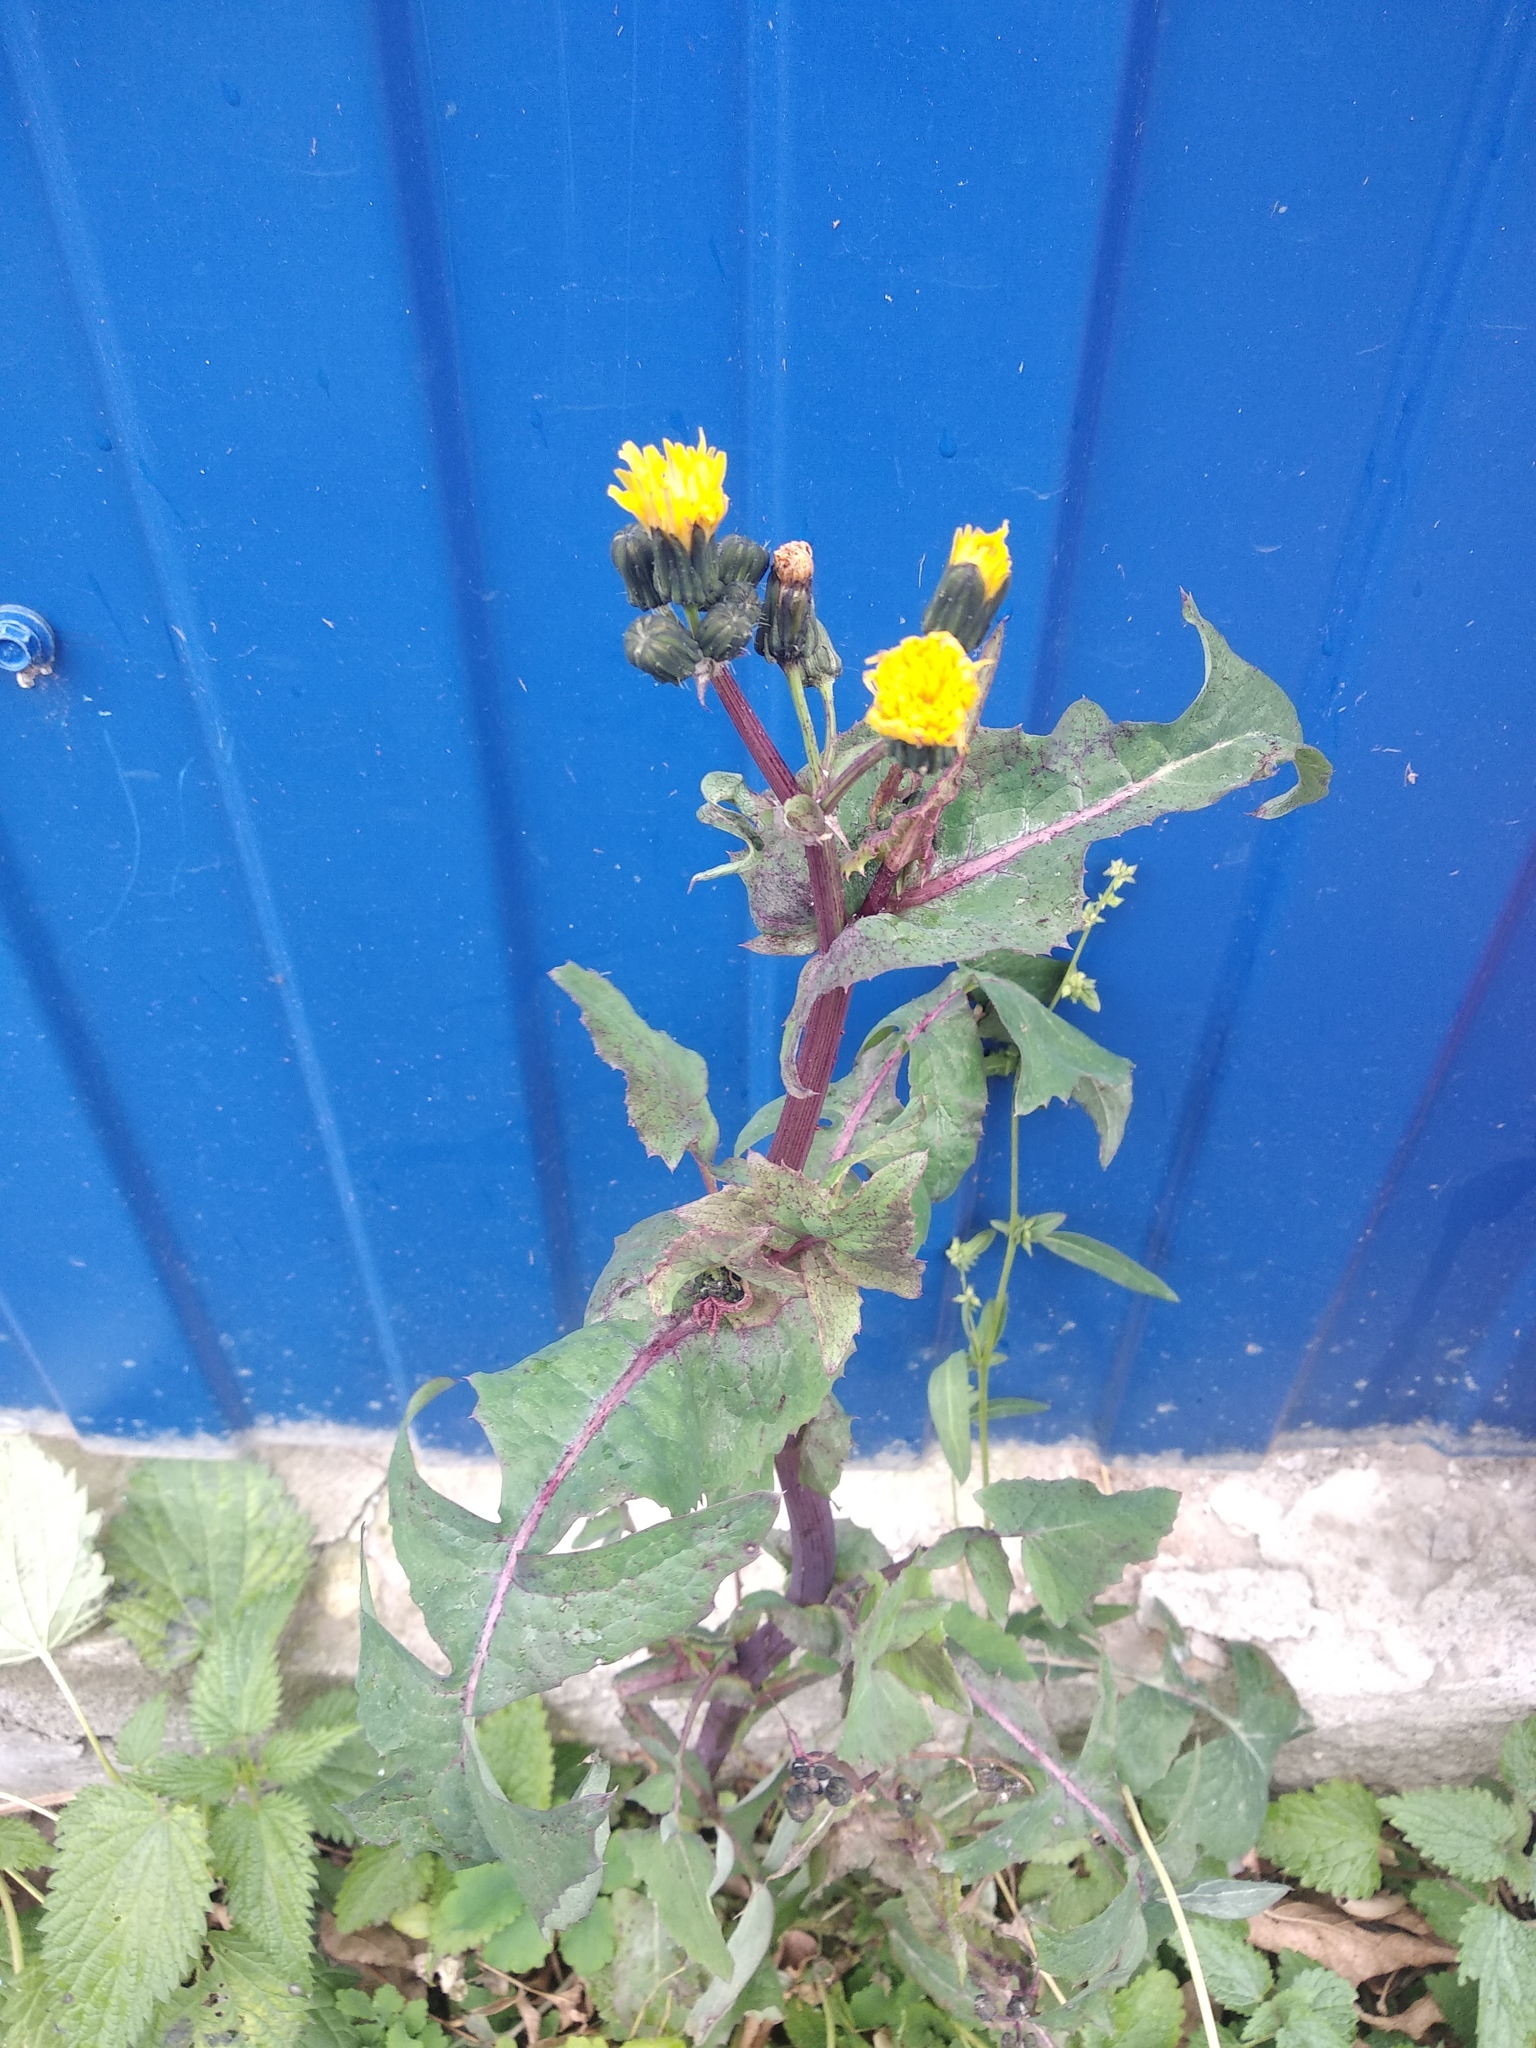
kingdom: Plantae
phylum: Tracheophyta
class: Magnoliopsida
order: Asterales
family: Asteraceae
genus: Sonchus
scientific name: Sonchus oleraceus
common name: Common sowthistle
